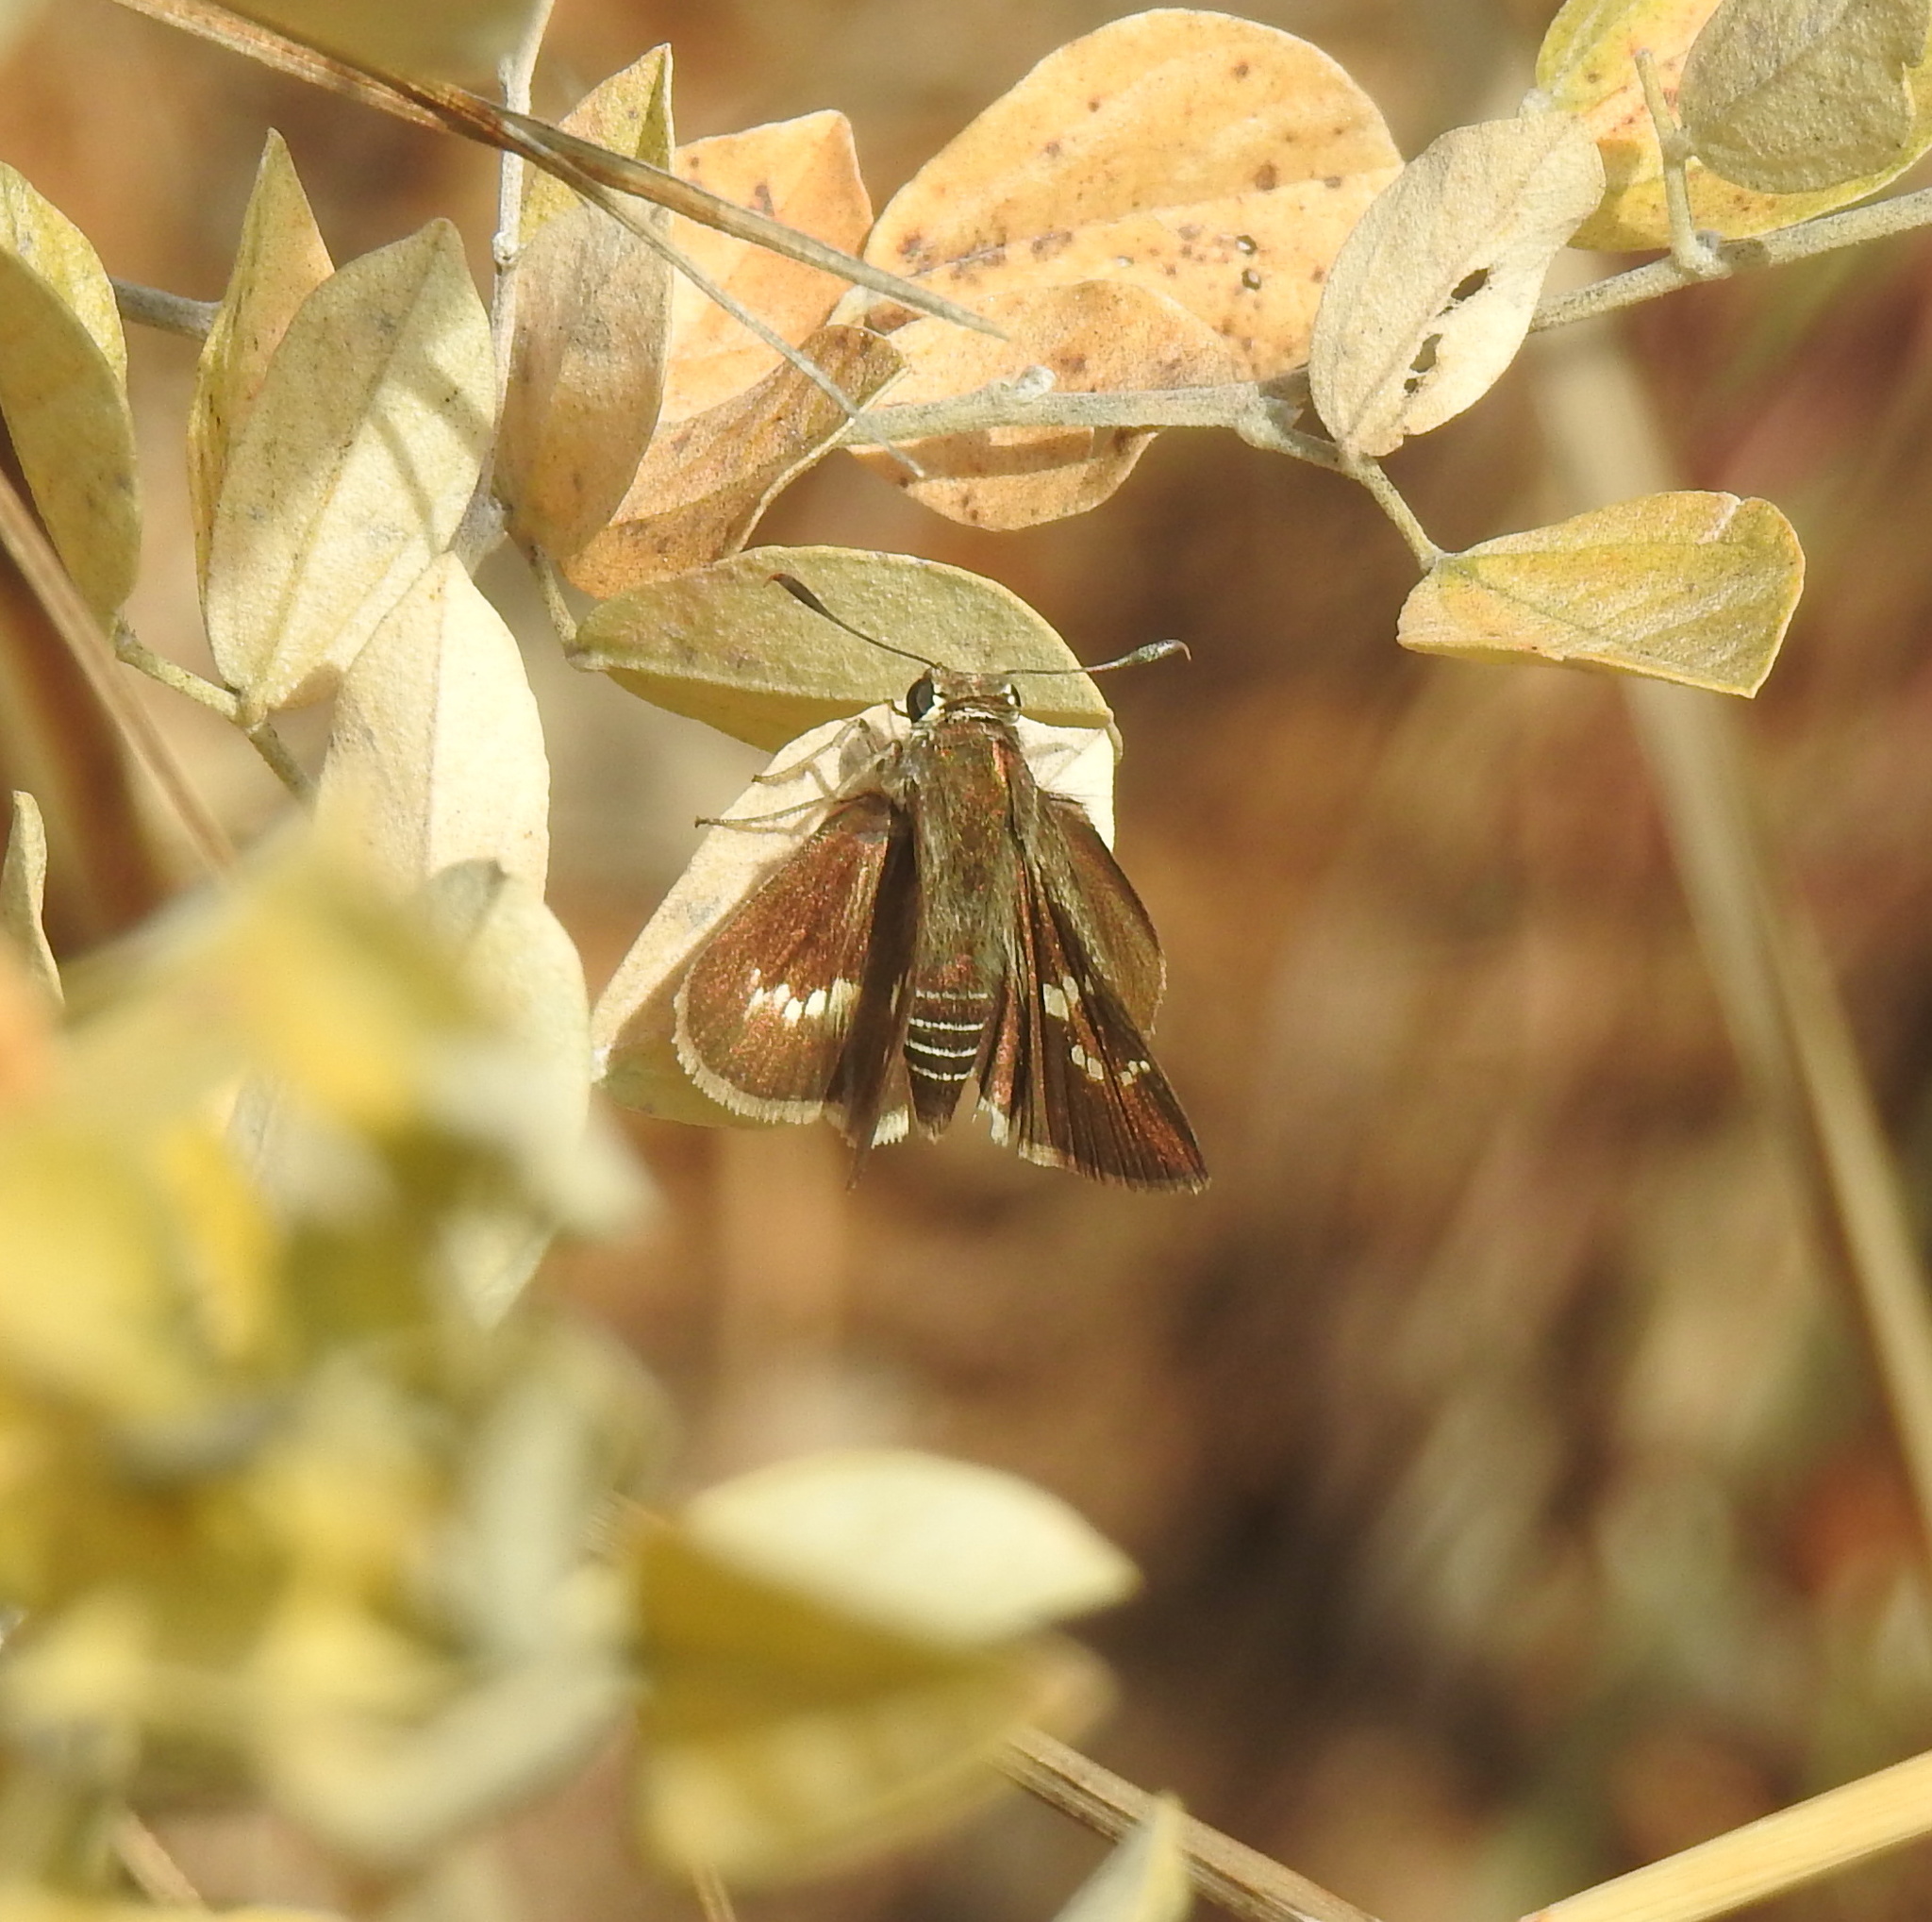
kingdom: Animalia
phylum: Arthropoda
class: Insecta
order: Lepidoptera
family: Hesperiidae
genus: Platylesches
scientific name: Platylesches neba
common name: Flower-girl hopper
